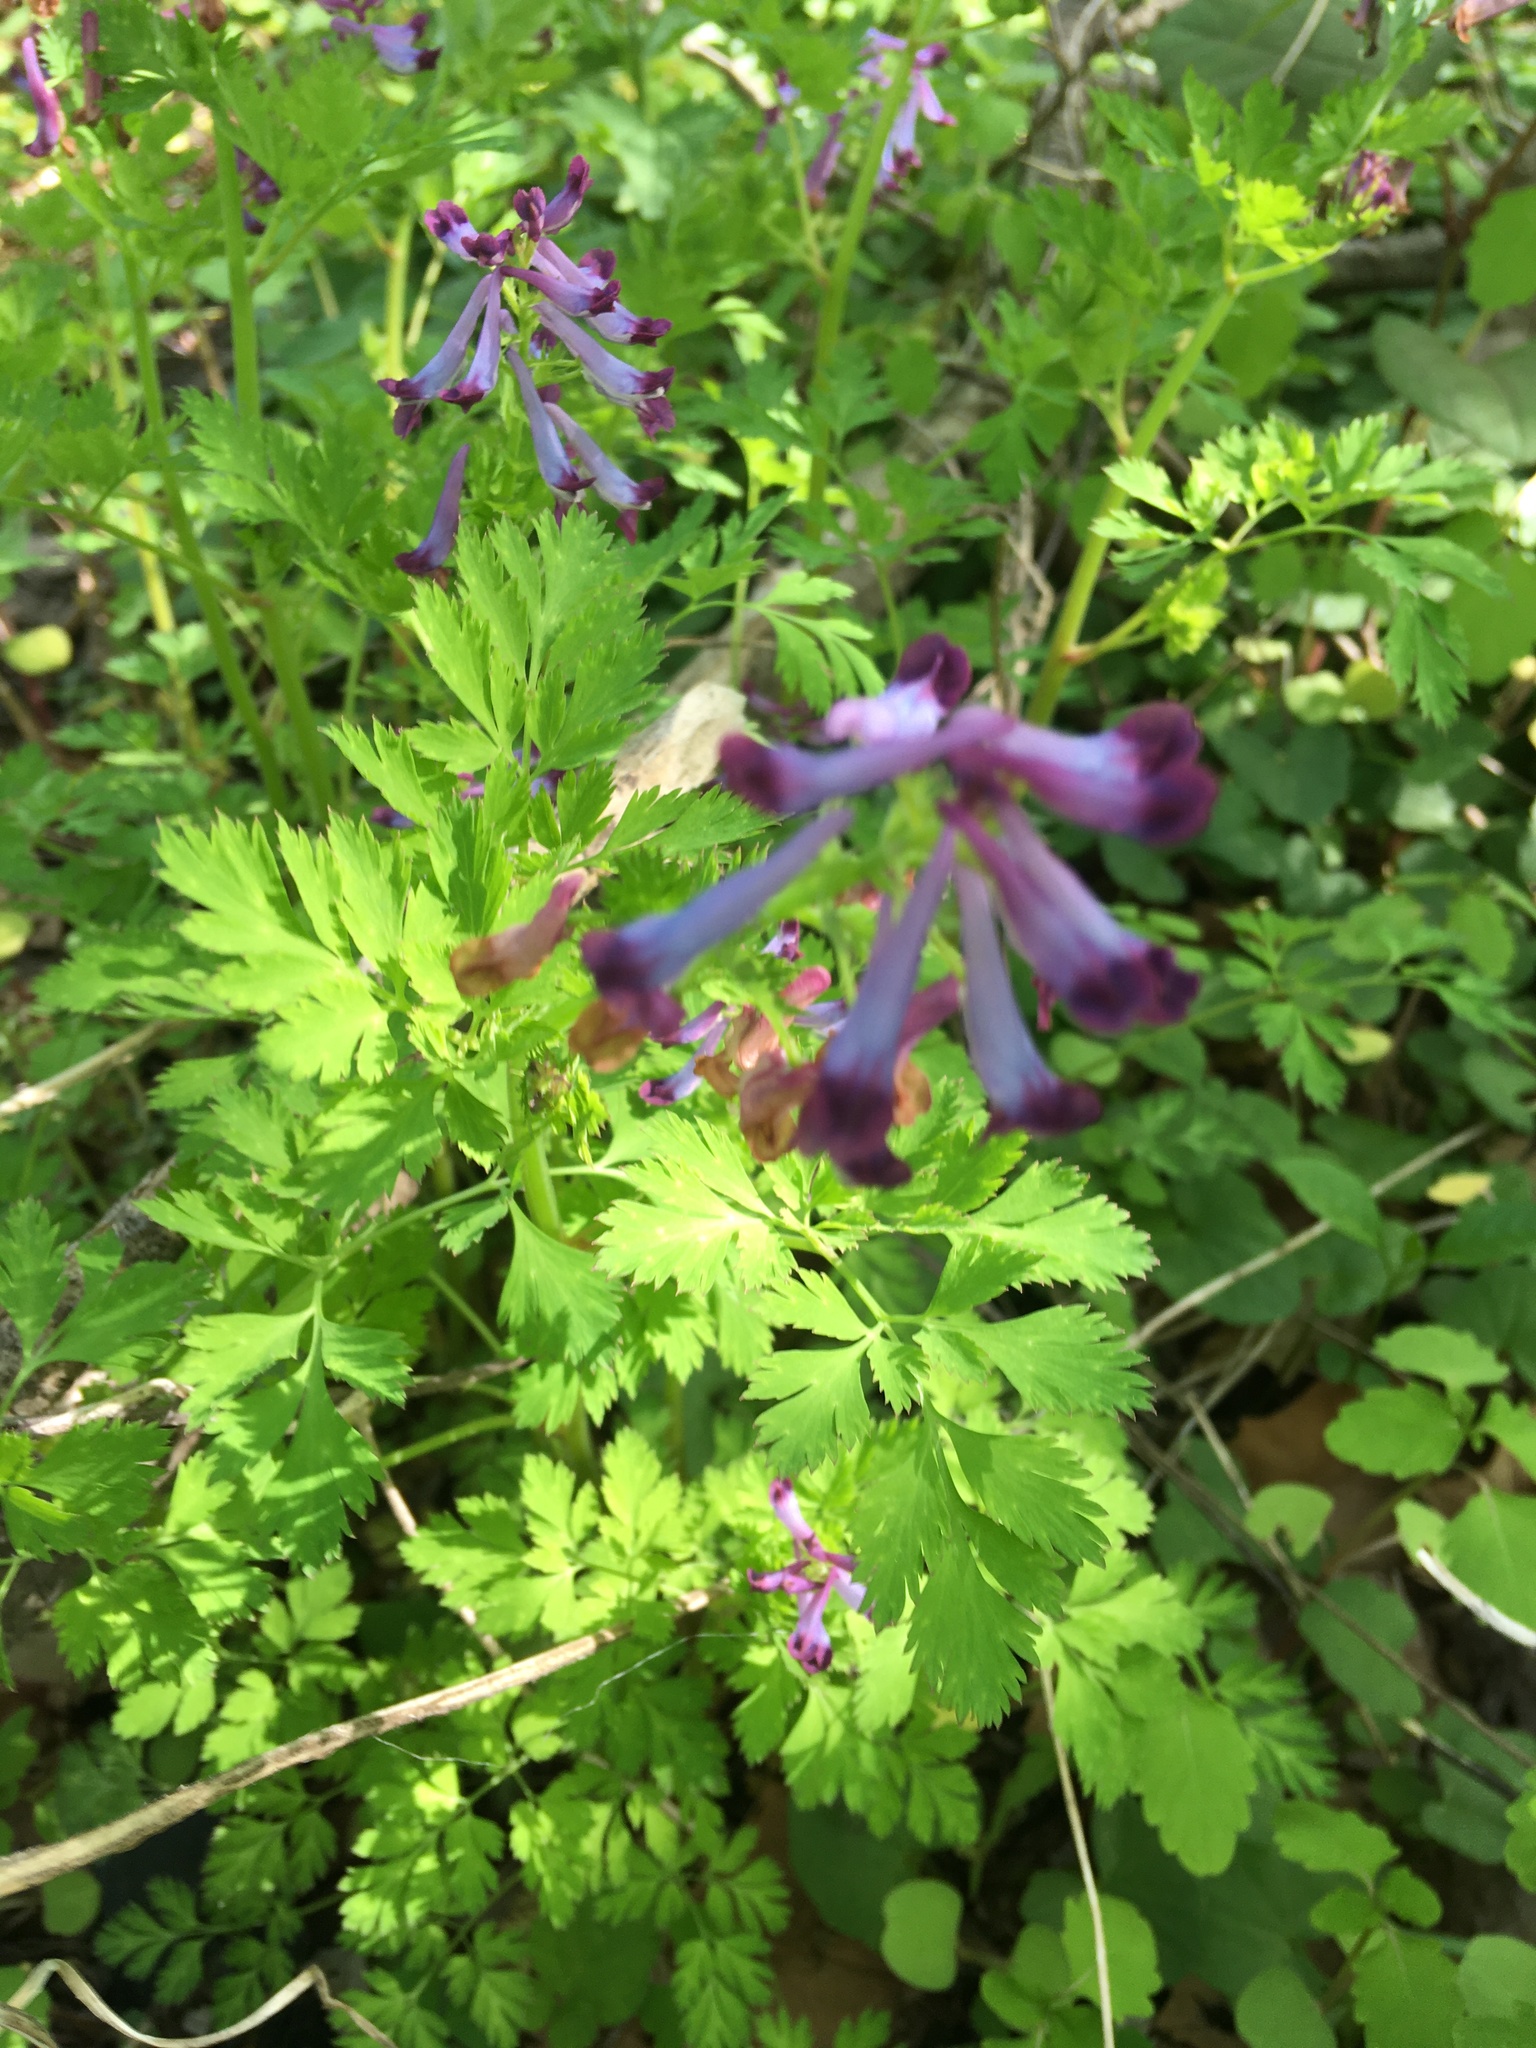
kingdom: Plantae
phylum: Tracheophyta
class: Magnoliopsida
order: Ranunculales
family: Papaveraceae
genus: Corydalis
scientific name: Corydalis incisa
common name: Incised fumewort
